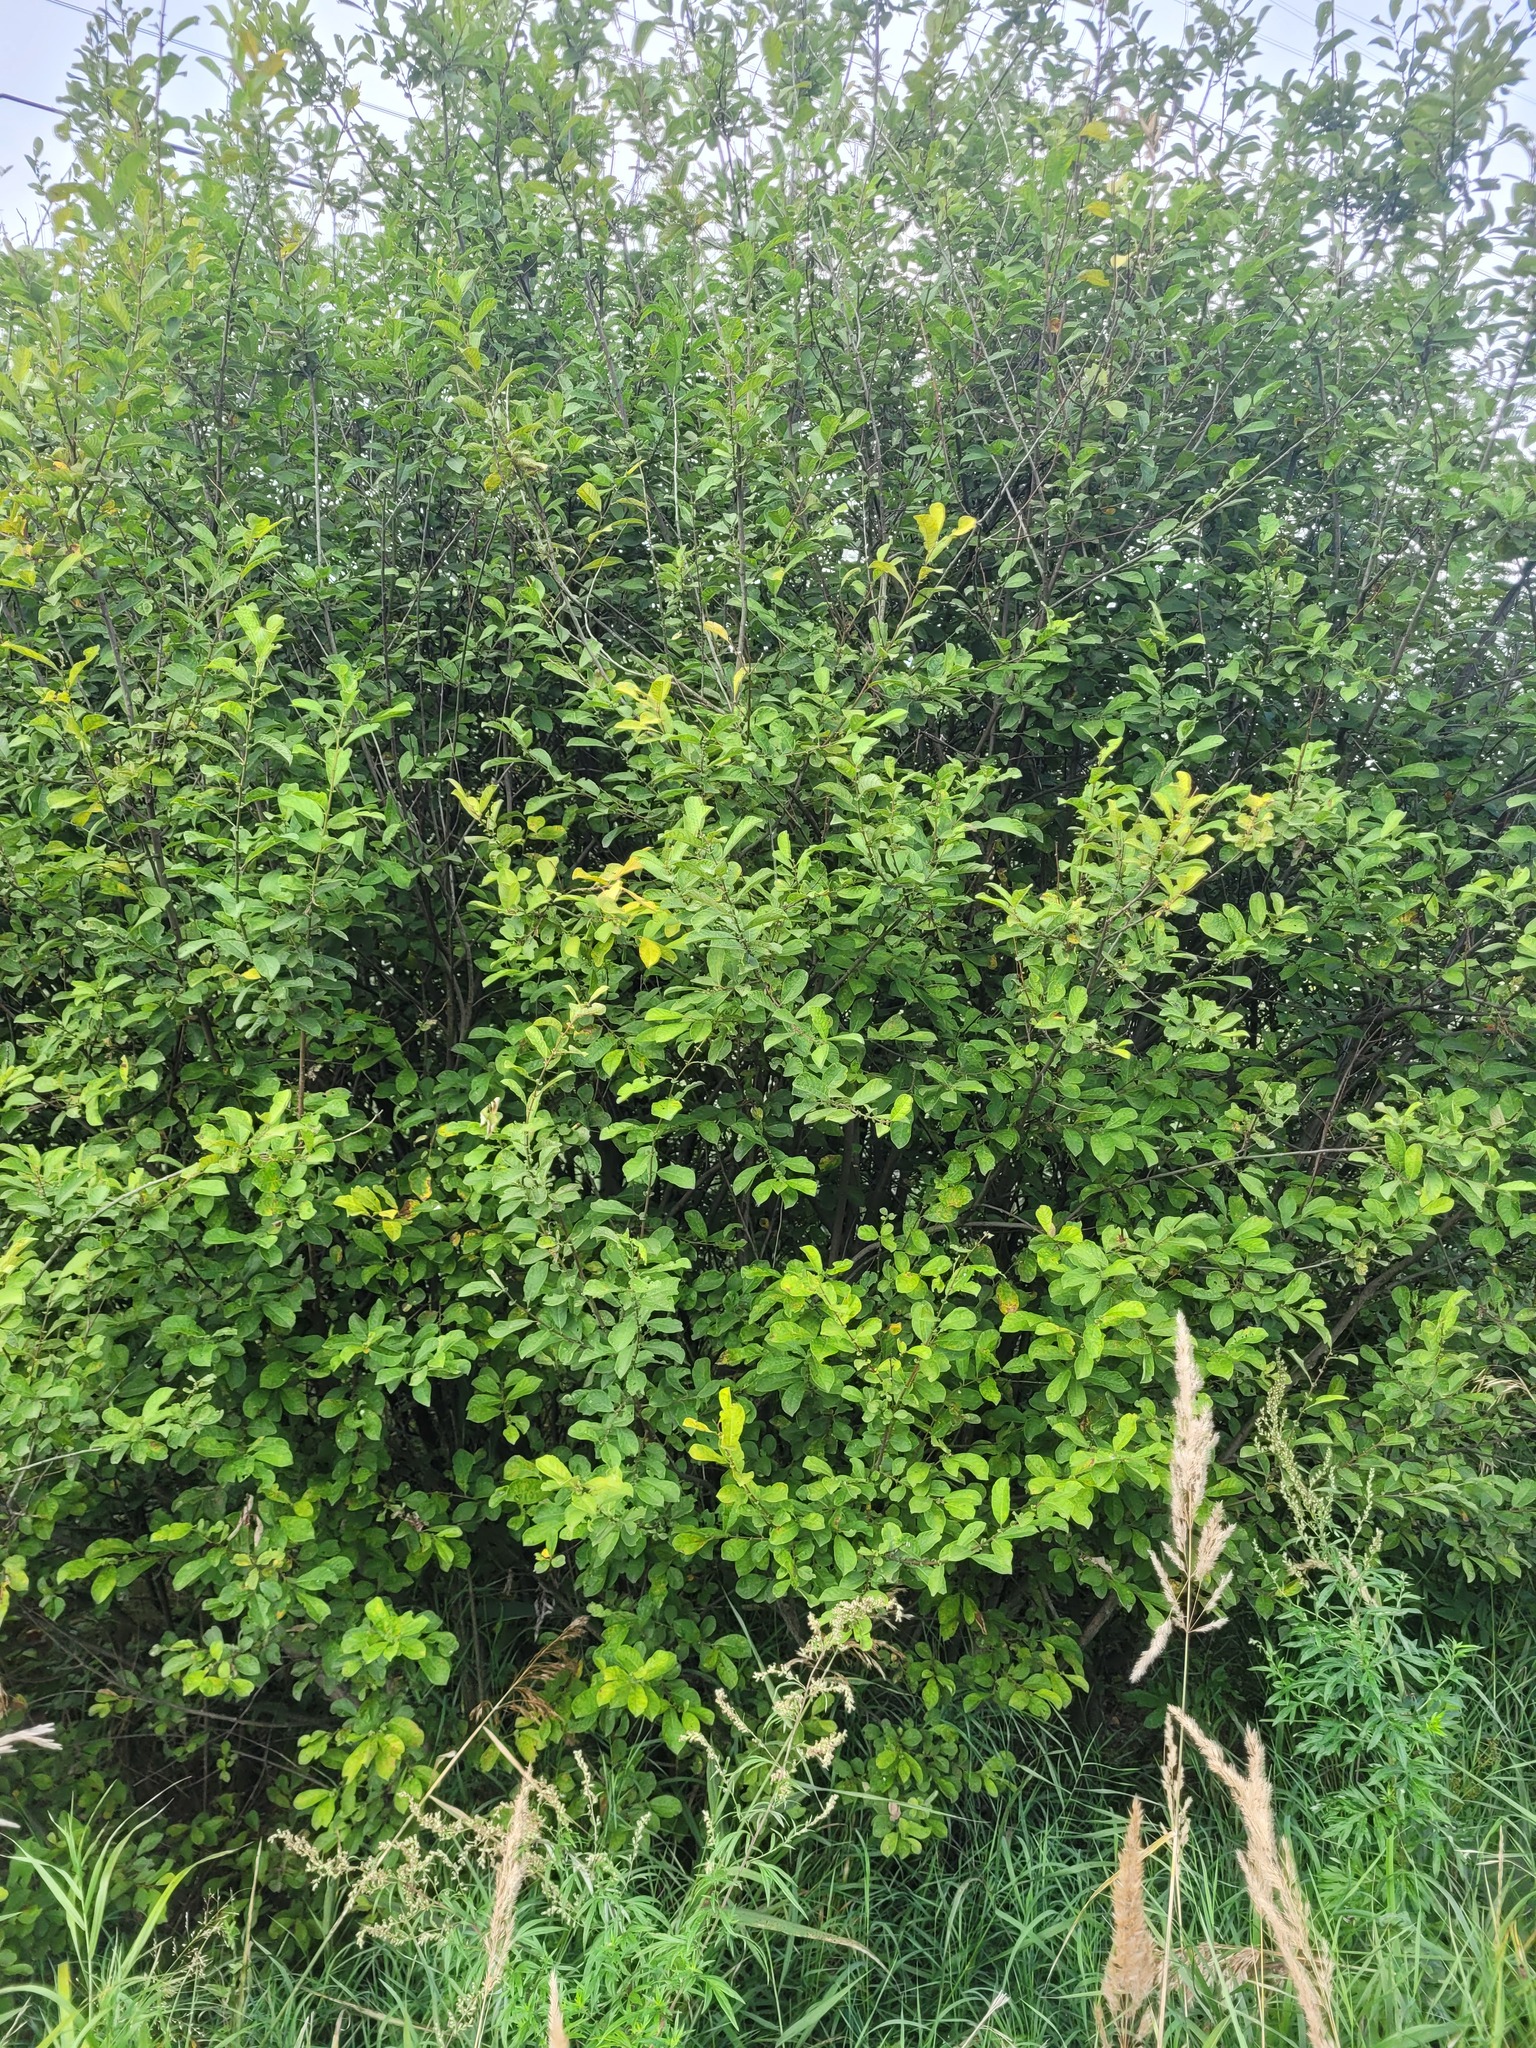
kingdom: Plantae
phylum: Tracheophyta
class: Magnoliopsida
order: Malpighiales
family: Salicaceae
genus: Salix
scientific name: Salix aurita
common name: Eared willow
